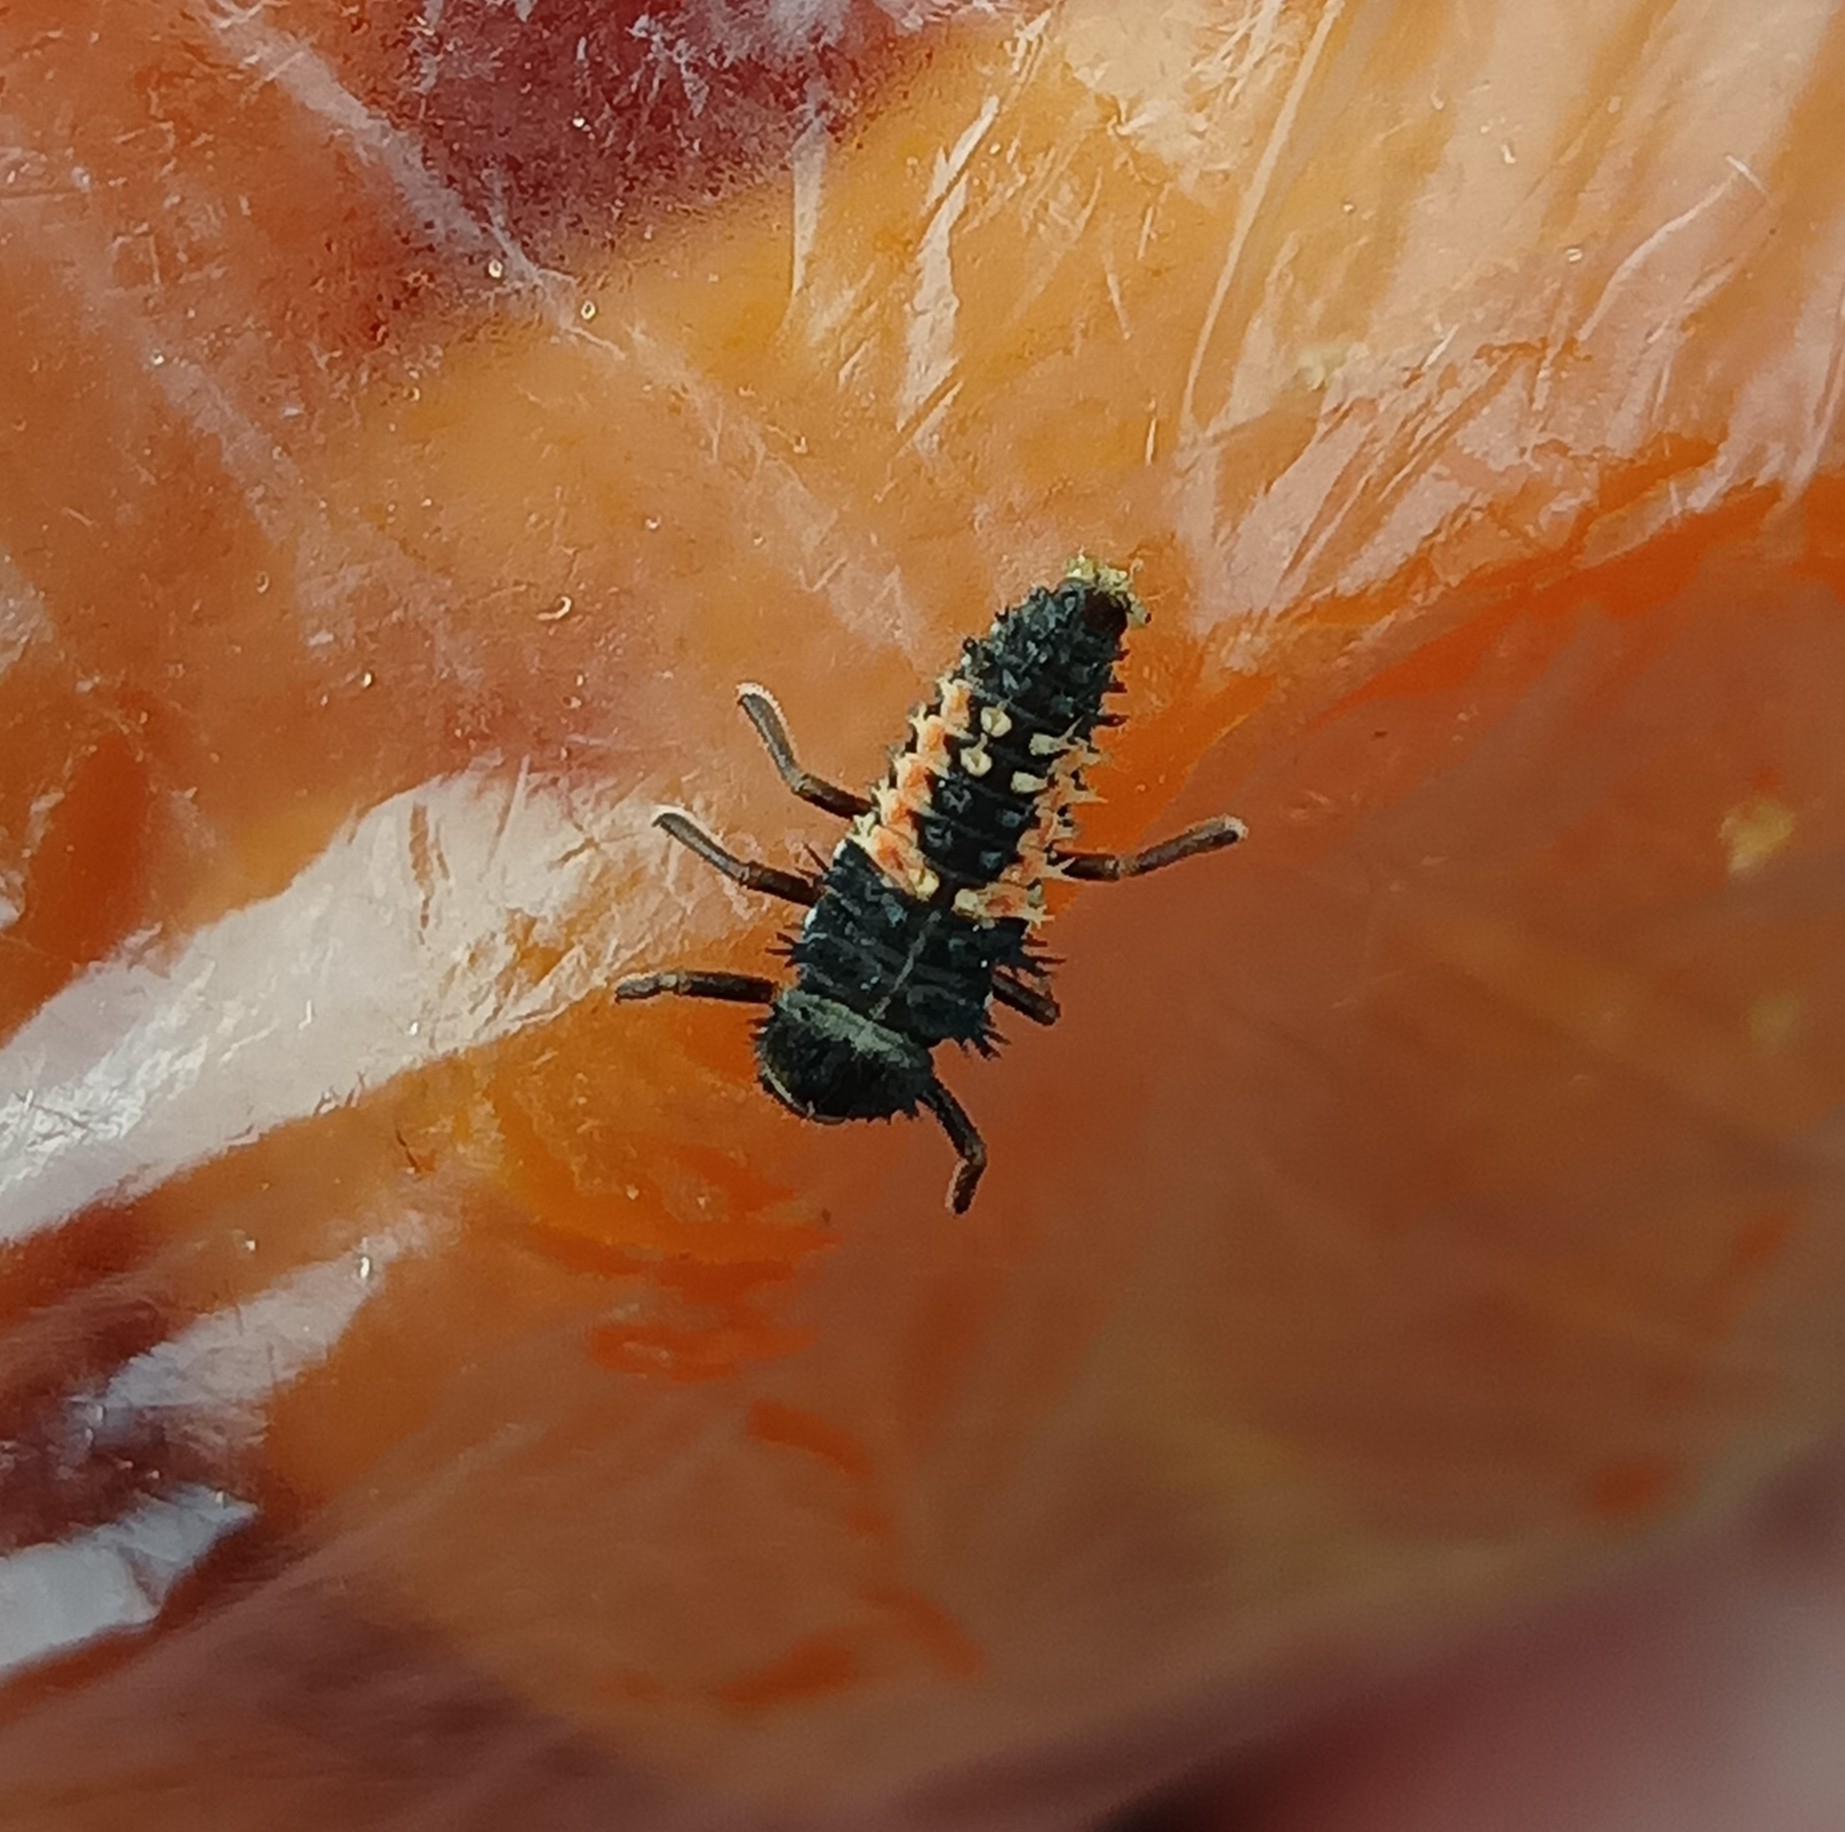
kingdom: Animalia
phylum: Arthropoda
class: Insecta
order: Coleoptera
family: Coccinellidae
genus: Harmonia
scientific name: Harmonia axyridis
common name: Harlequin ladybird
